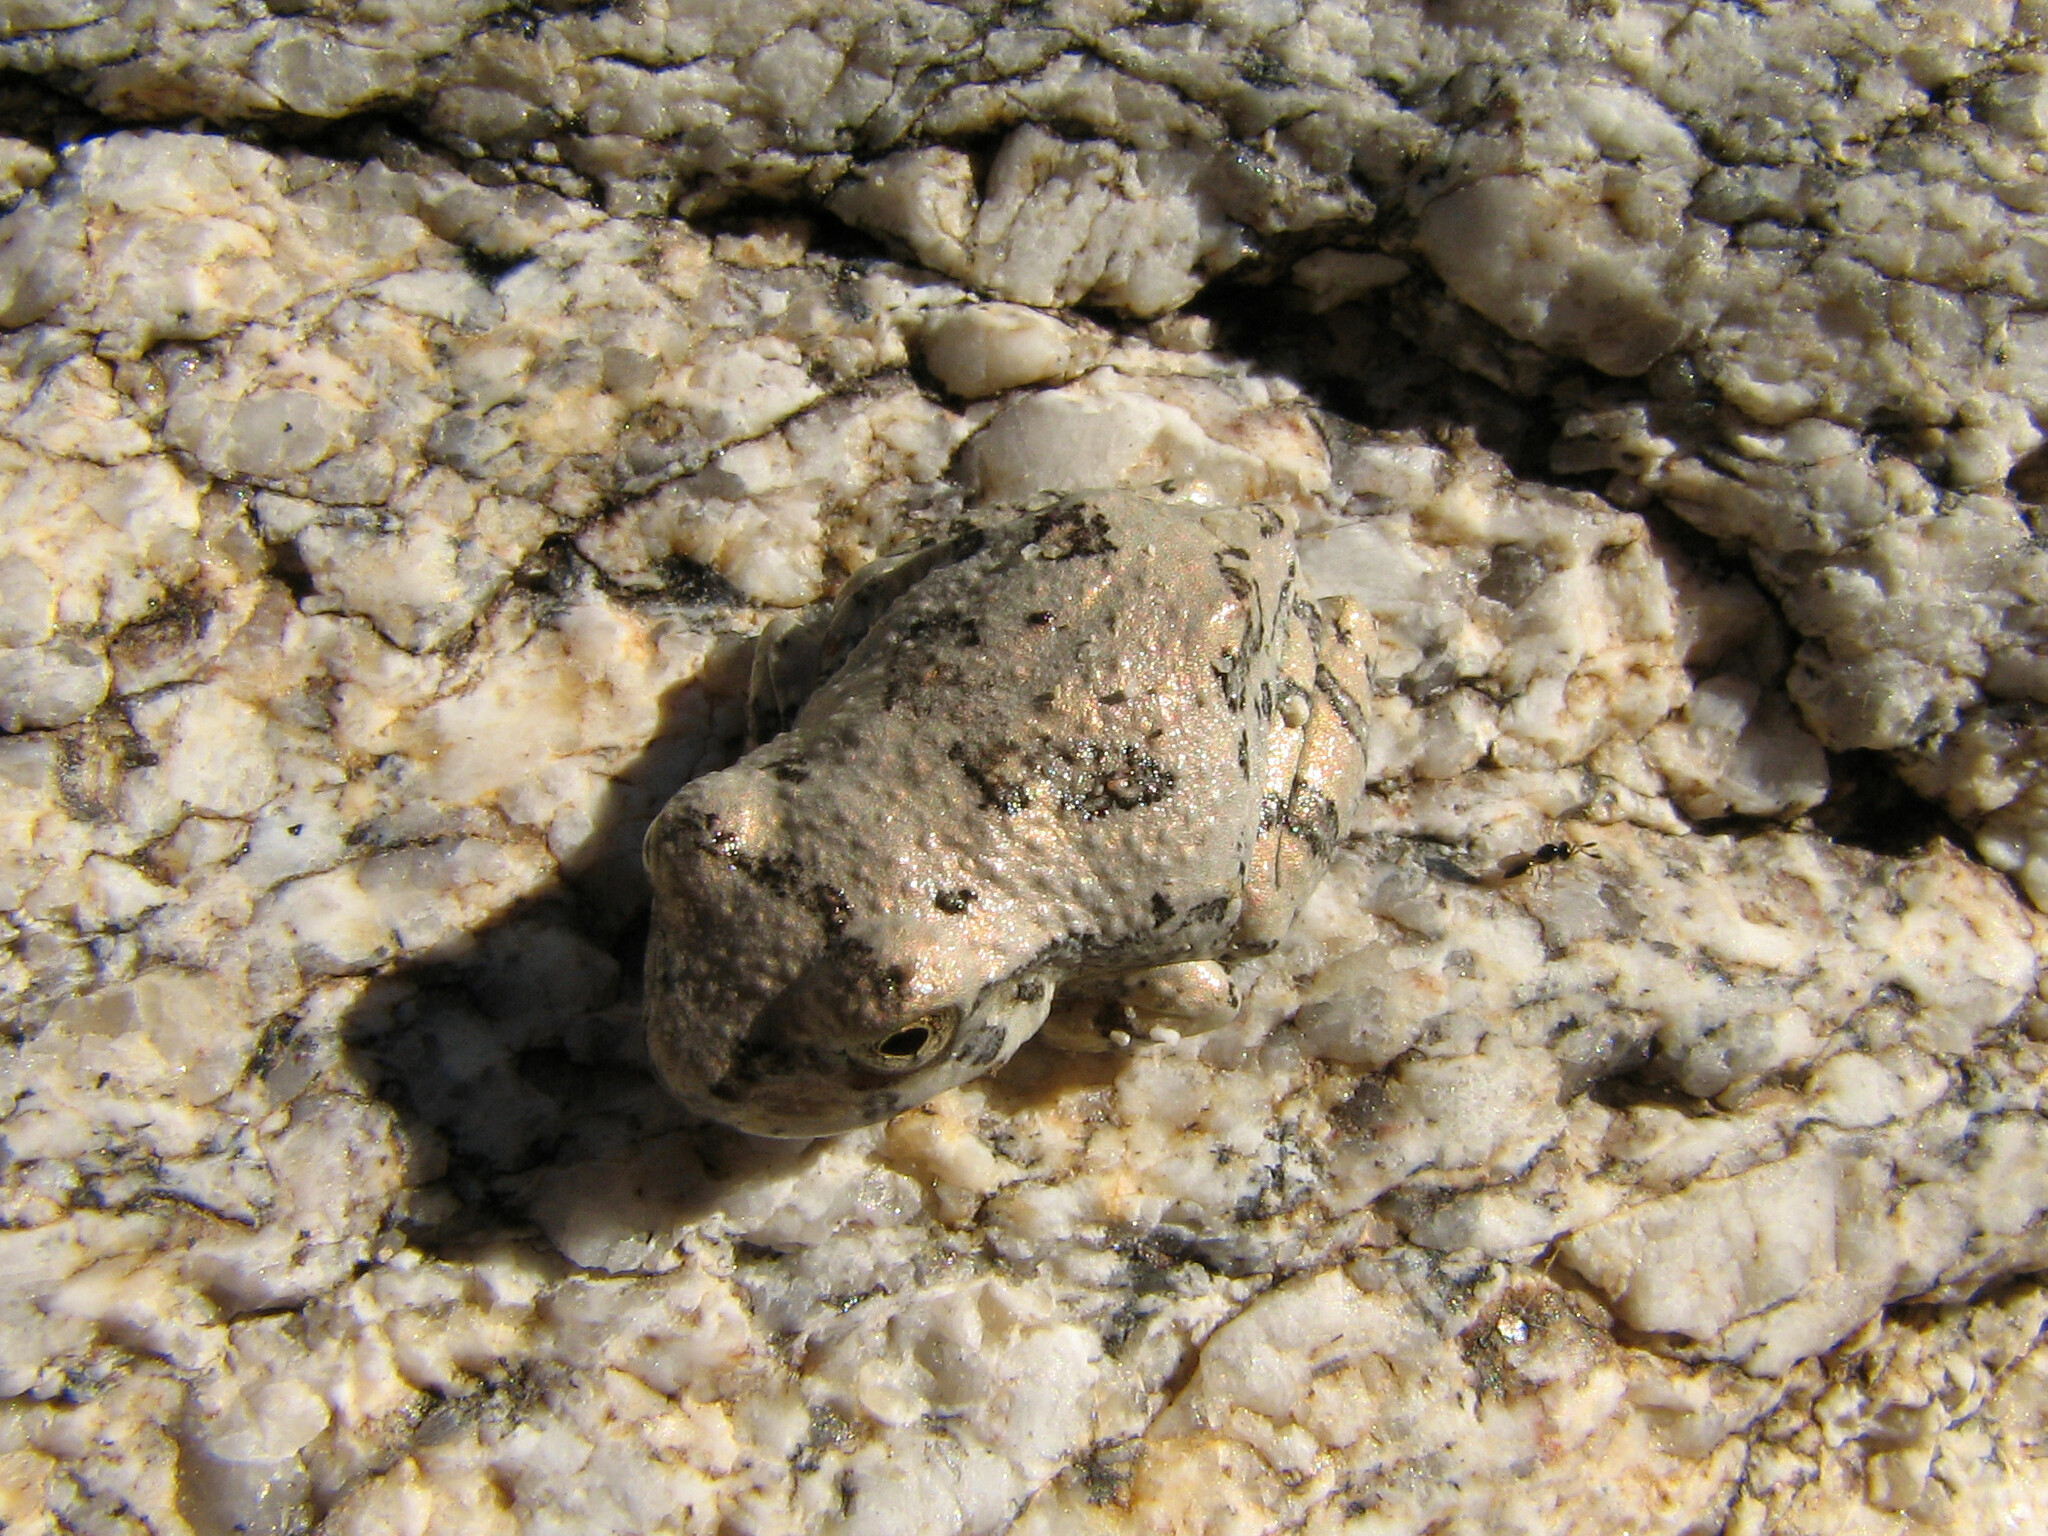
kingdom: Animalia
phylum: Chordata
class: Amphibia
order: Anura
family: Hylidae
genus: Dryophytes
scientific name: Dryophytes arenicolor
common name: Canyon treefrog
